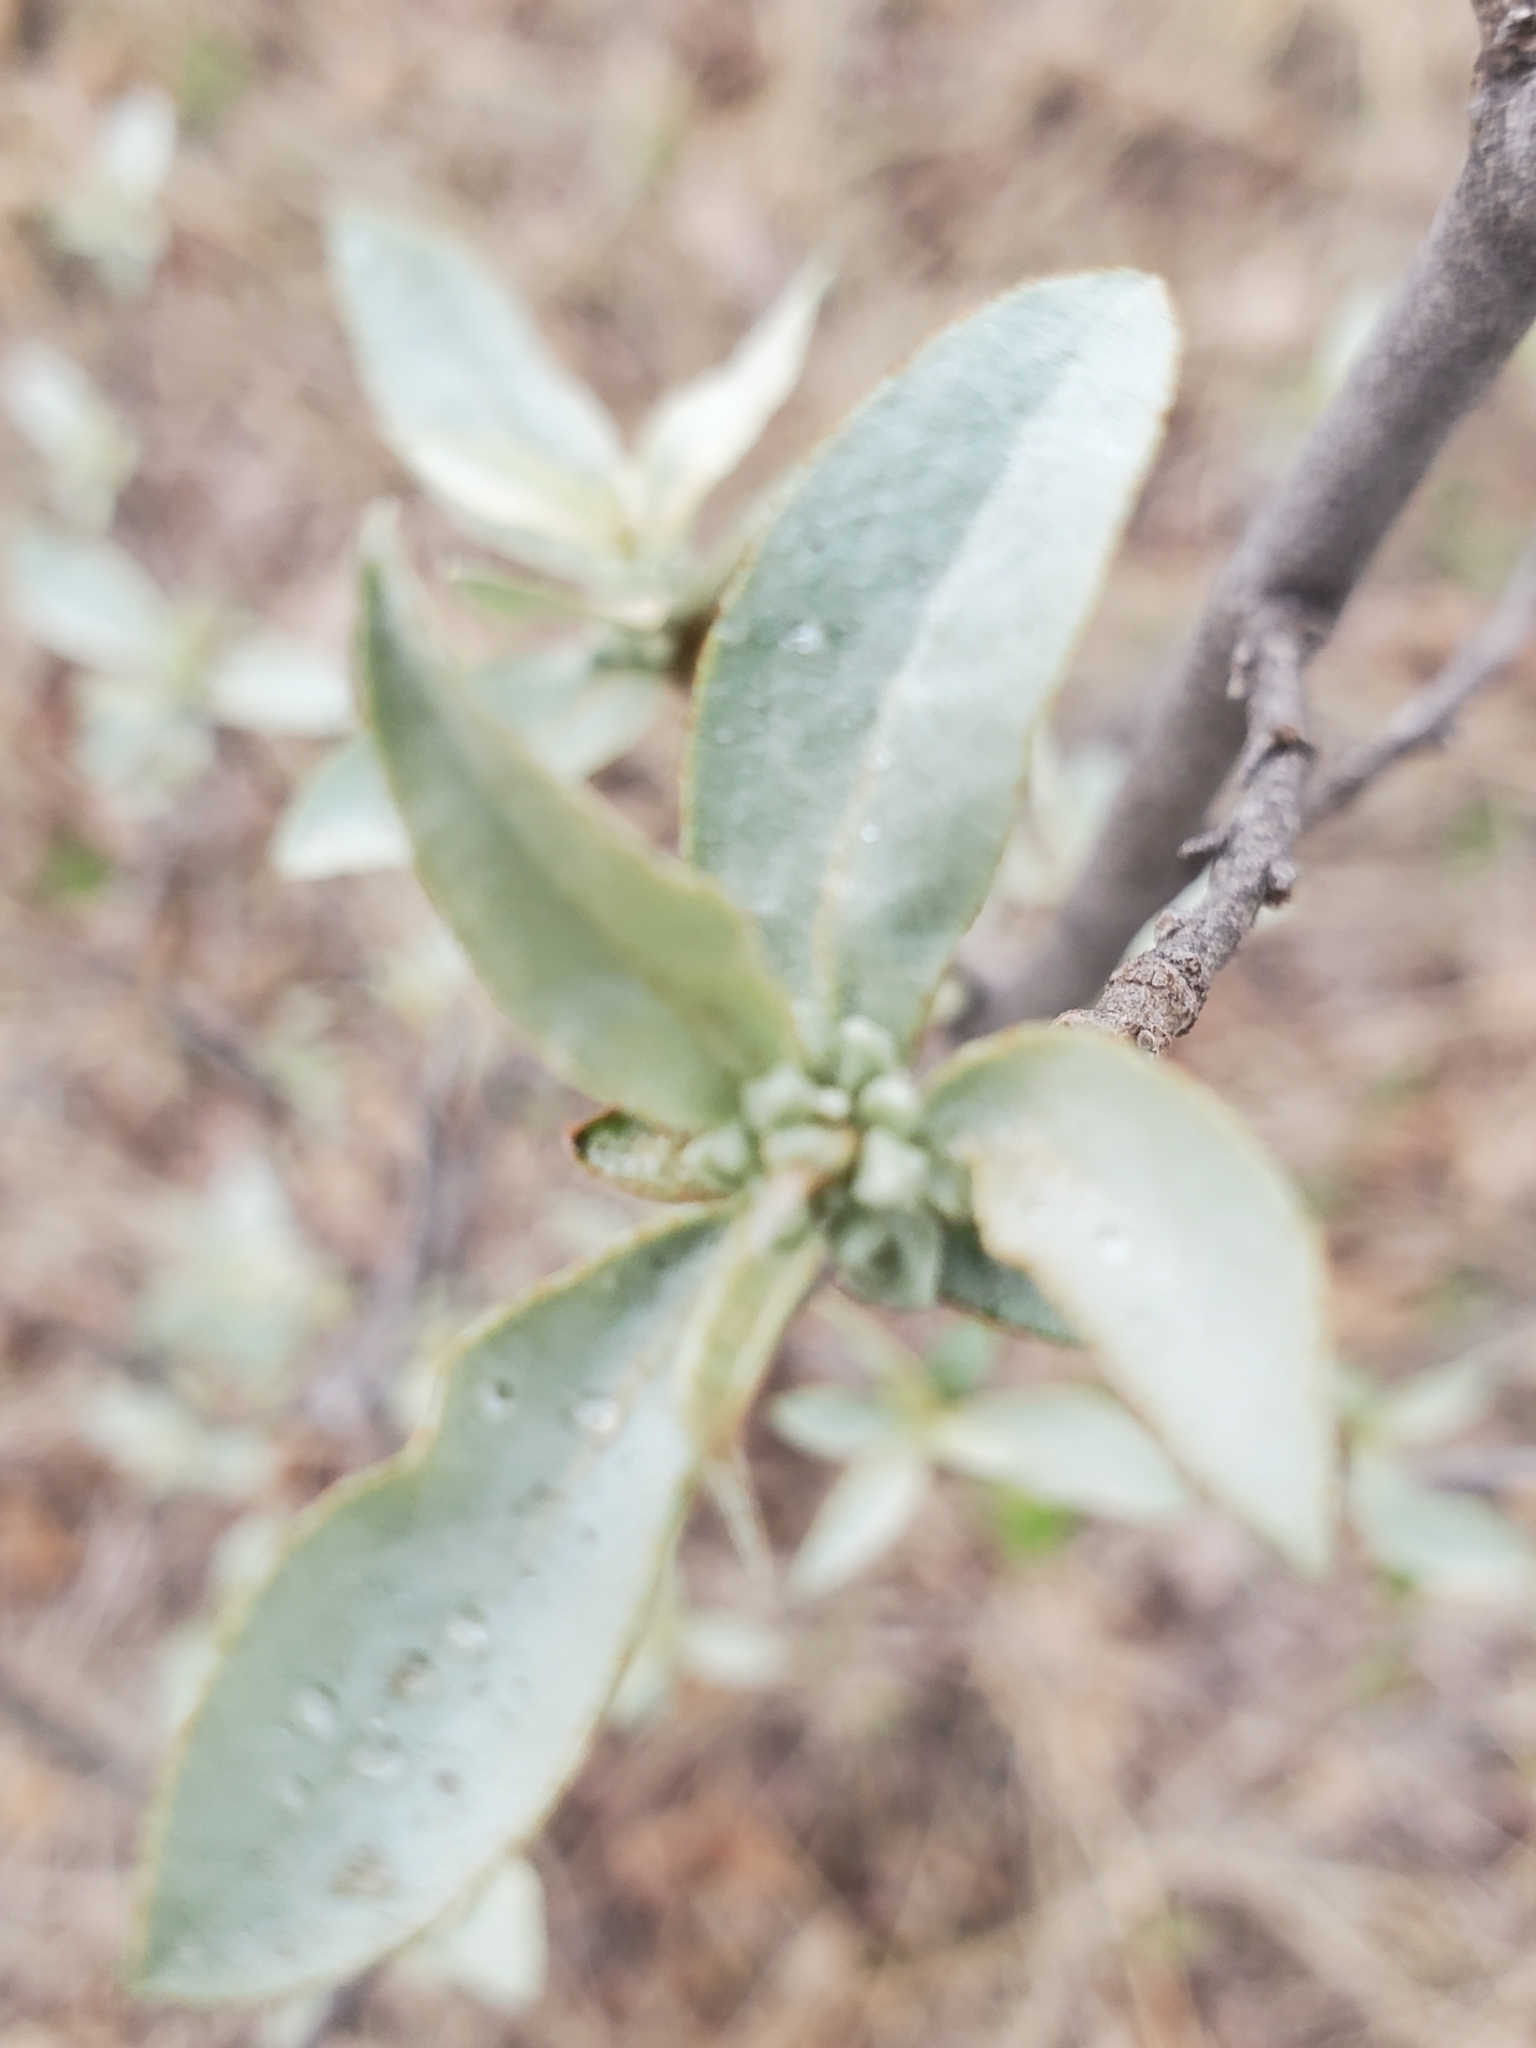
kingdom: Plantae
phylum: Tracheophyta
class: Magnoliopsida
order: Rosales
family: Elaeagnaceae
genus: Elaeagnus
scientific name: Elaeagnus commutata
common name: Silverberry
